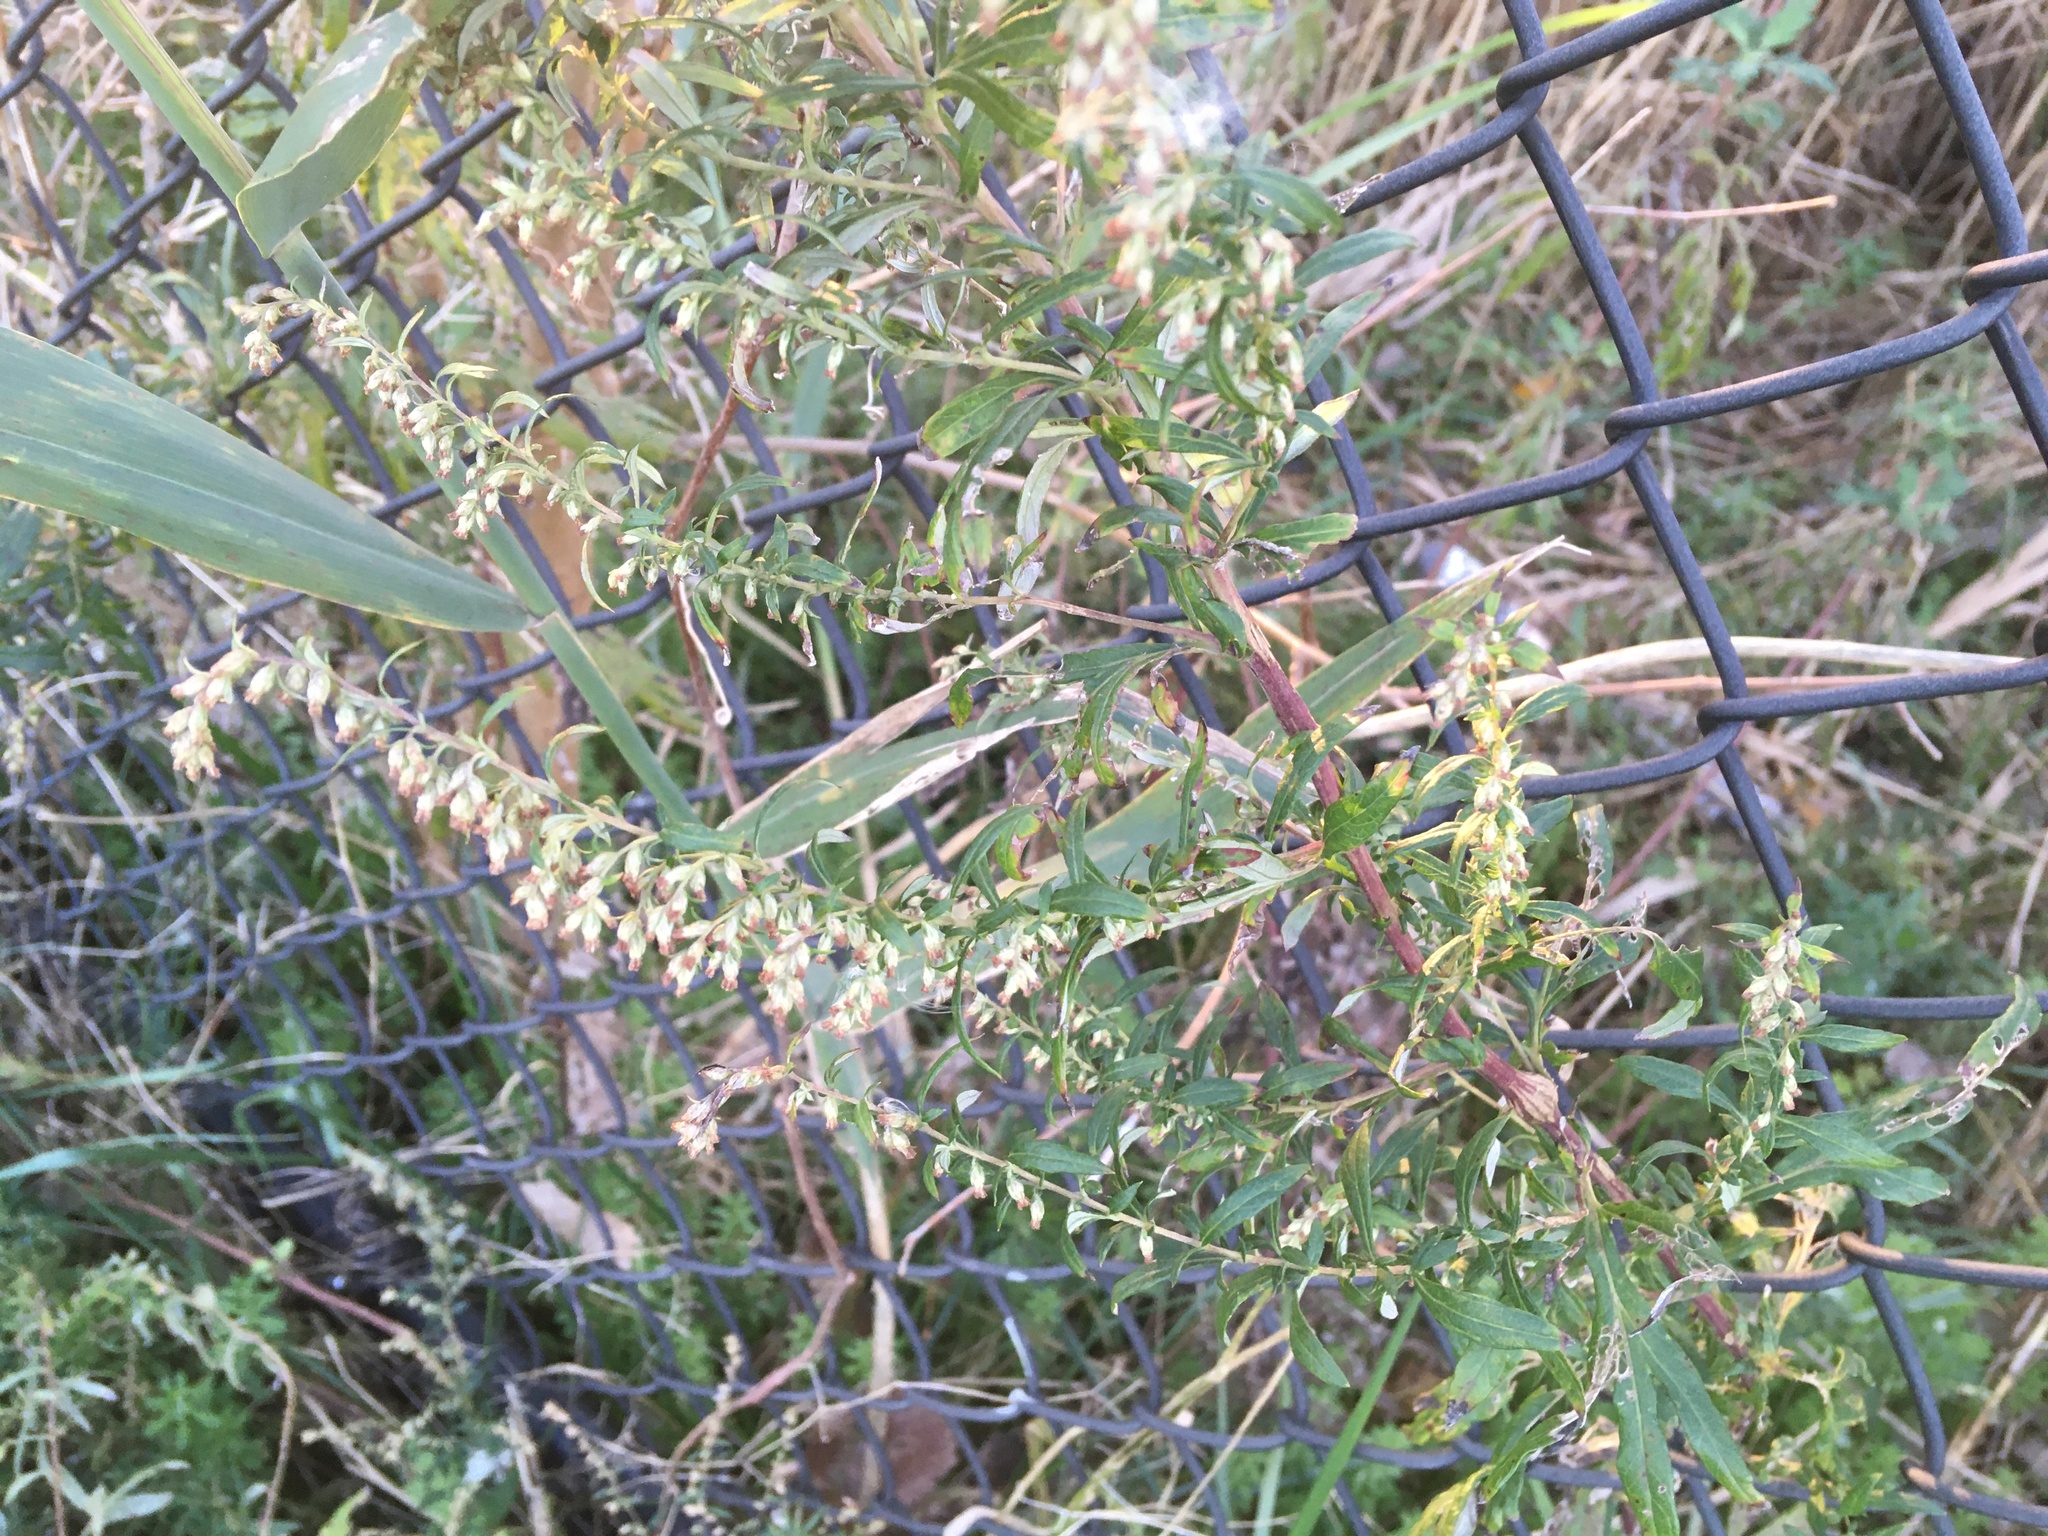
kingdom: Plantae
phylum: Tracheophyta
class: Magnoliopsida
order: Asterales
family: Asteraceae
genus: Artemisia
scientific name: Artemisia vulgaris
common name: Mugwort
